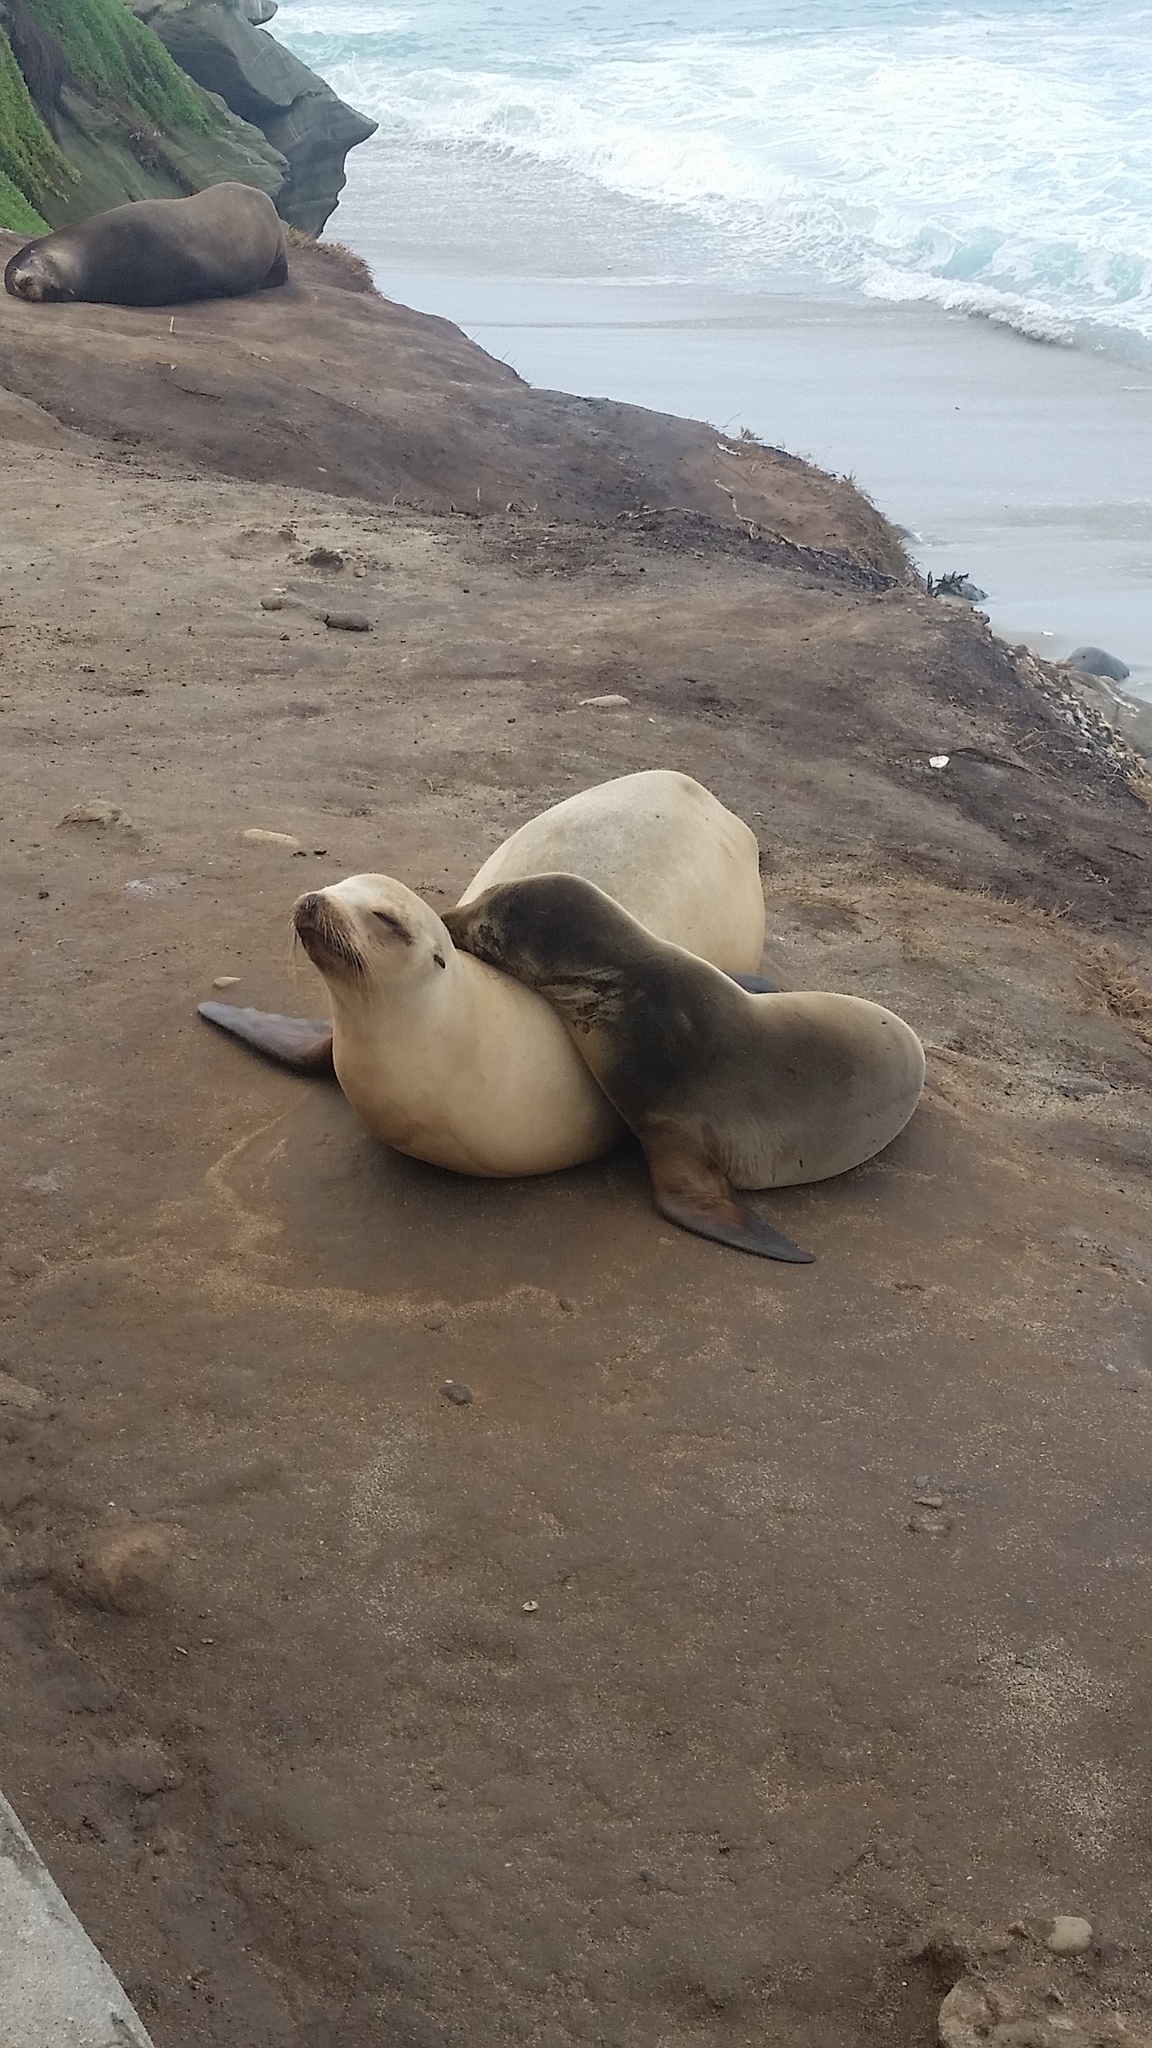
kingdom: Animalia
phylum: Chordata
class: Mammalia
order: Carnivora
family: Otariidae
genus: Zalophus
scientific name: Zalophus californianus
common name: California sea lion
